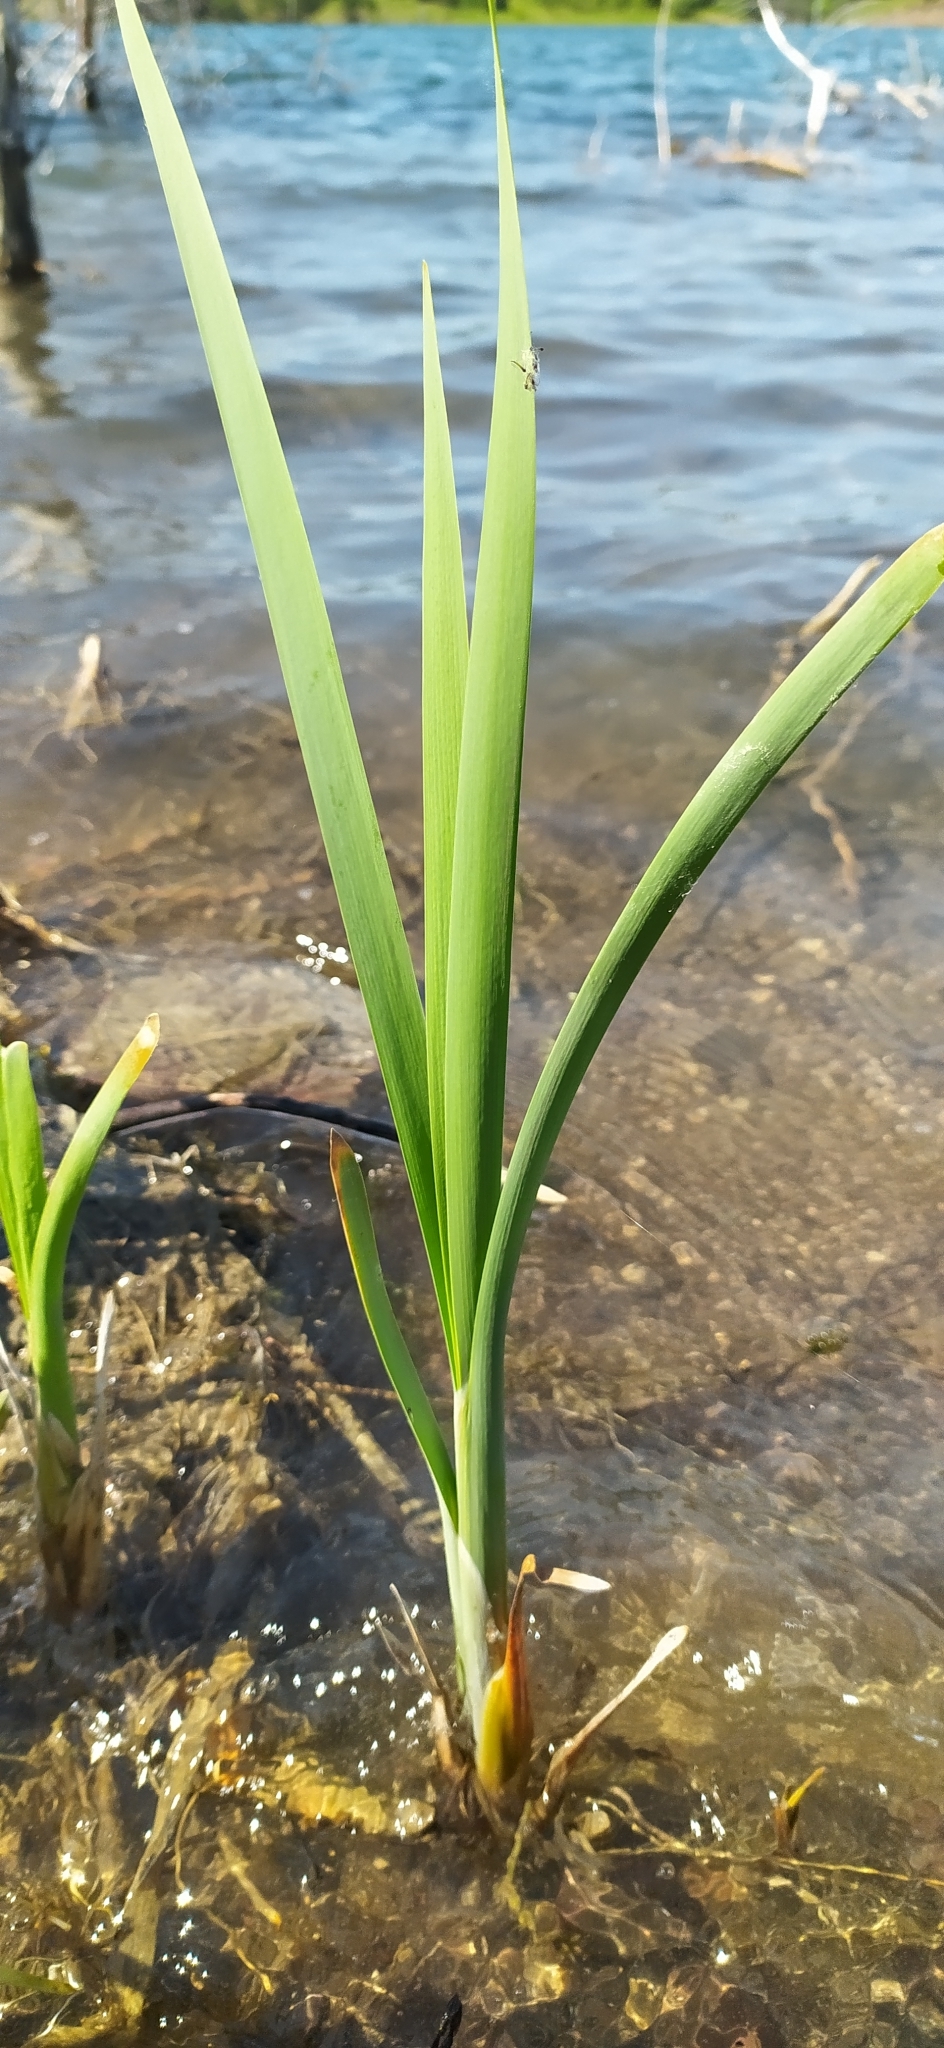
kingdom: Plantae
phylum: Tracheophyta
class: Liliopsida
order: Poales
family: Typhaceae
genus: Typha
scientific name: Typha latifolia
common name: Broadleaf cattail
